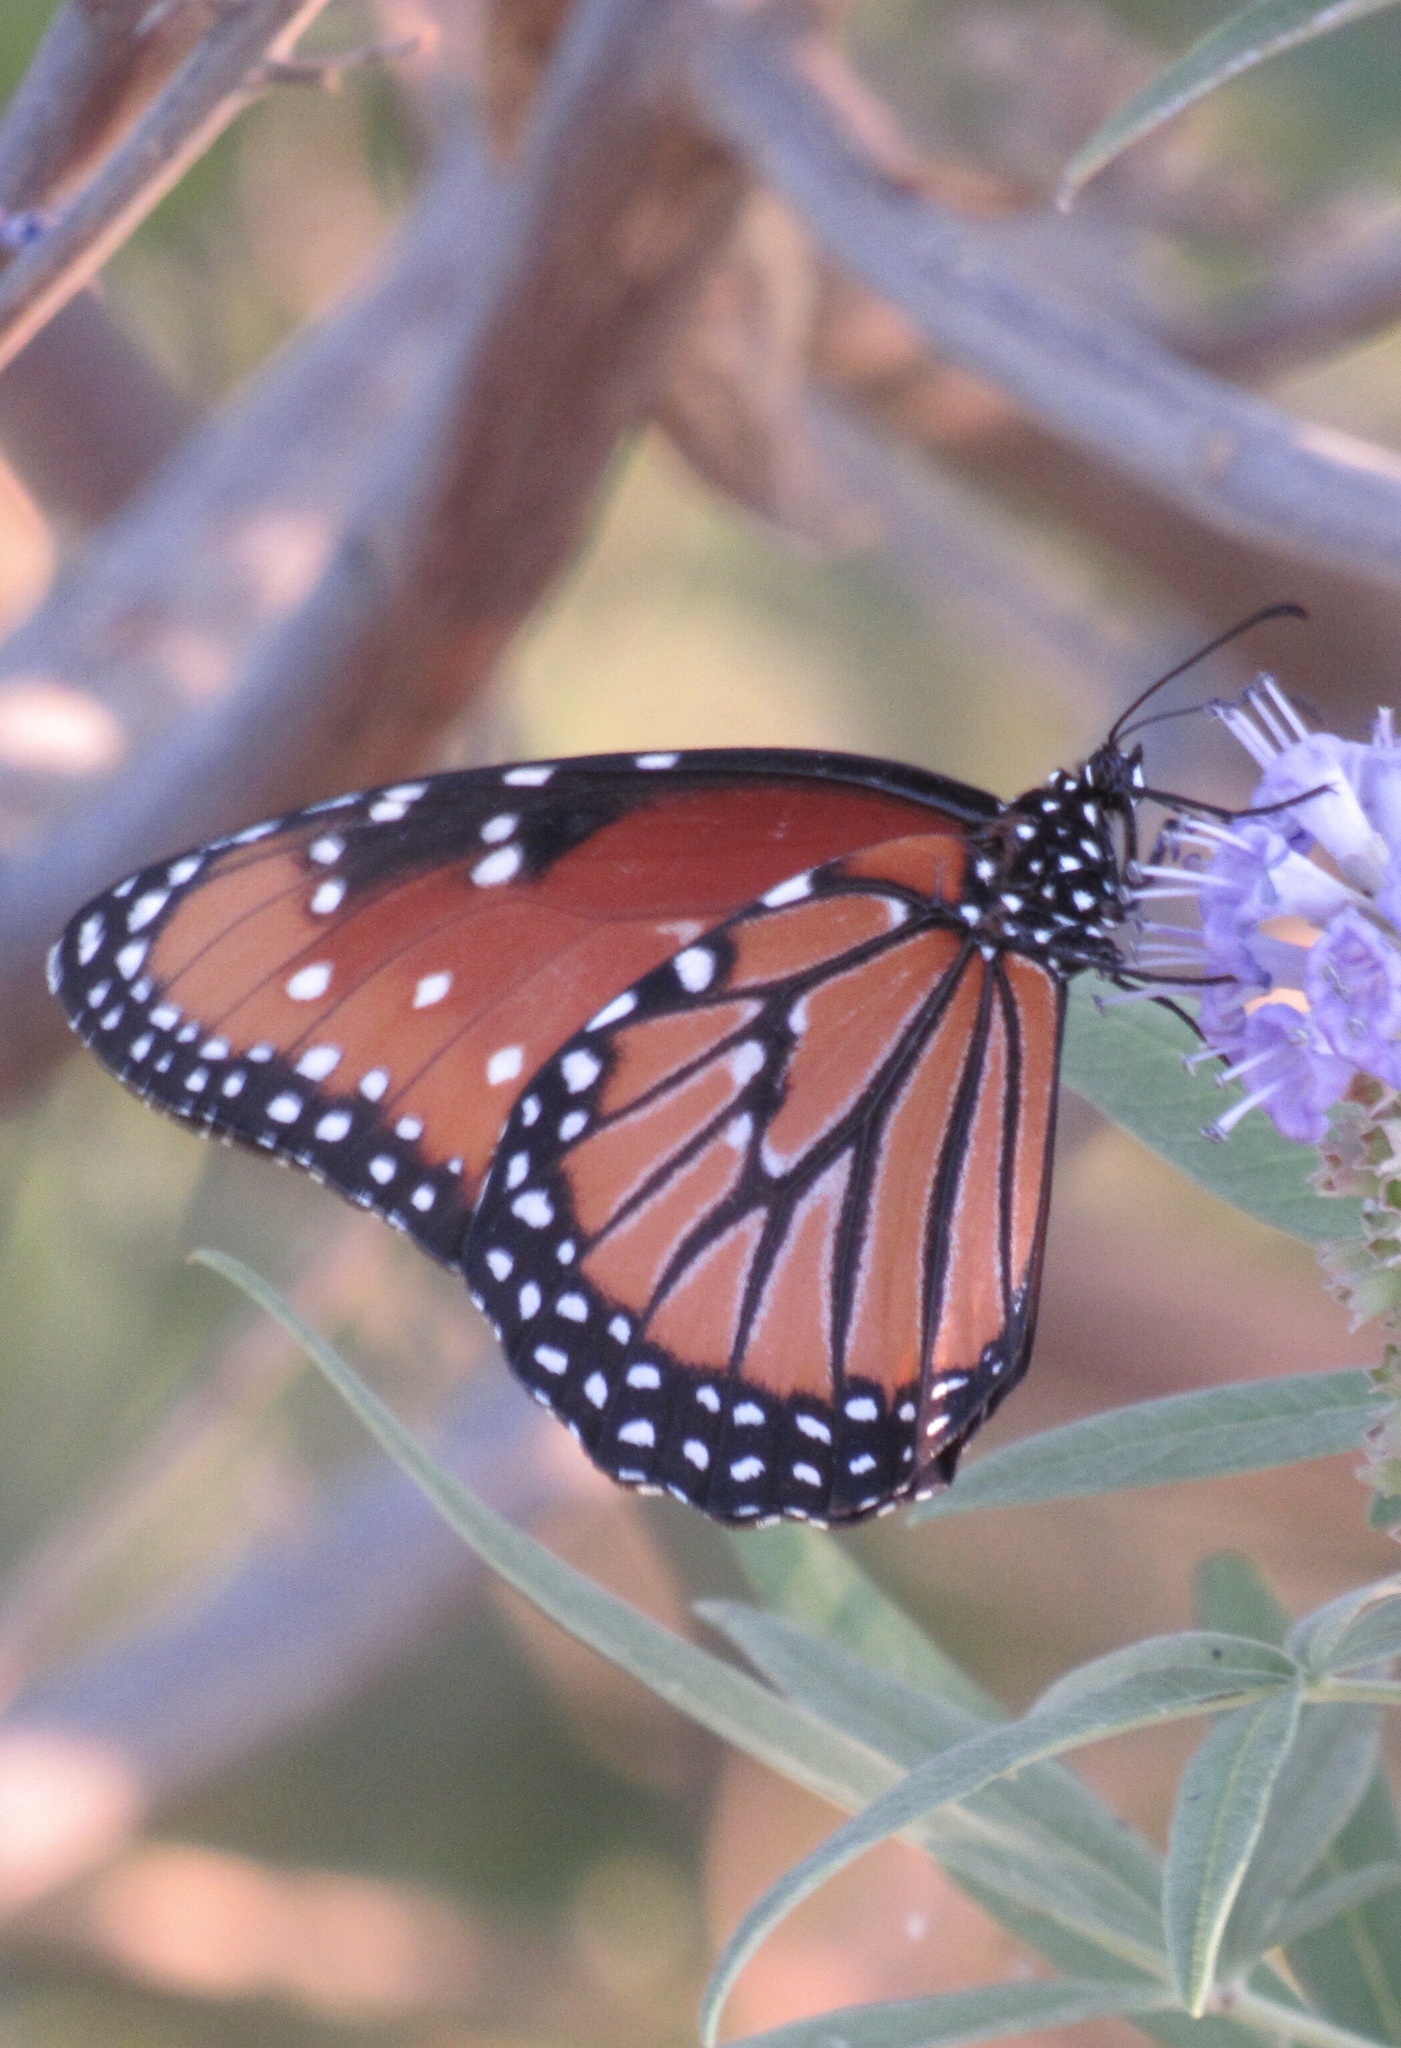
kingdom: Animalia
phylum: Arthropoda
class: Insecta
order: Lepidoptera
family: Nymphalidae
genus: Danaus
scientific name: Danaus gilippus
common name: Queen
